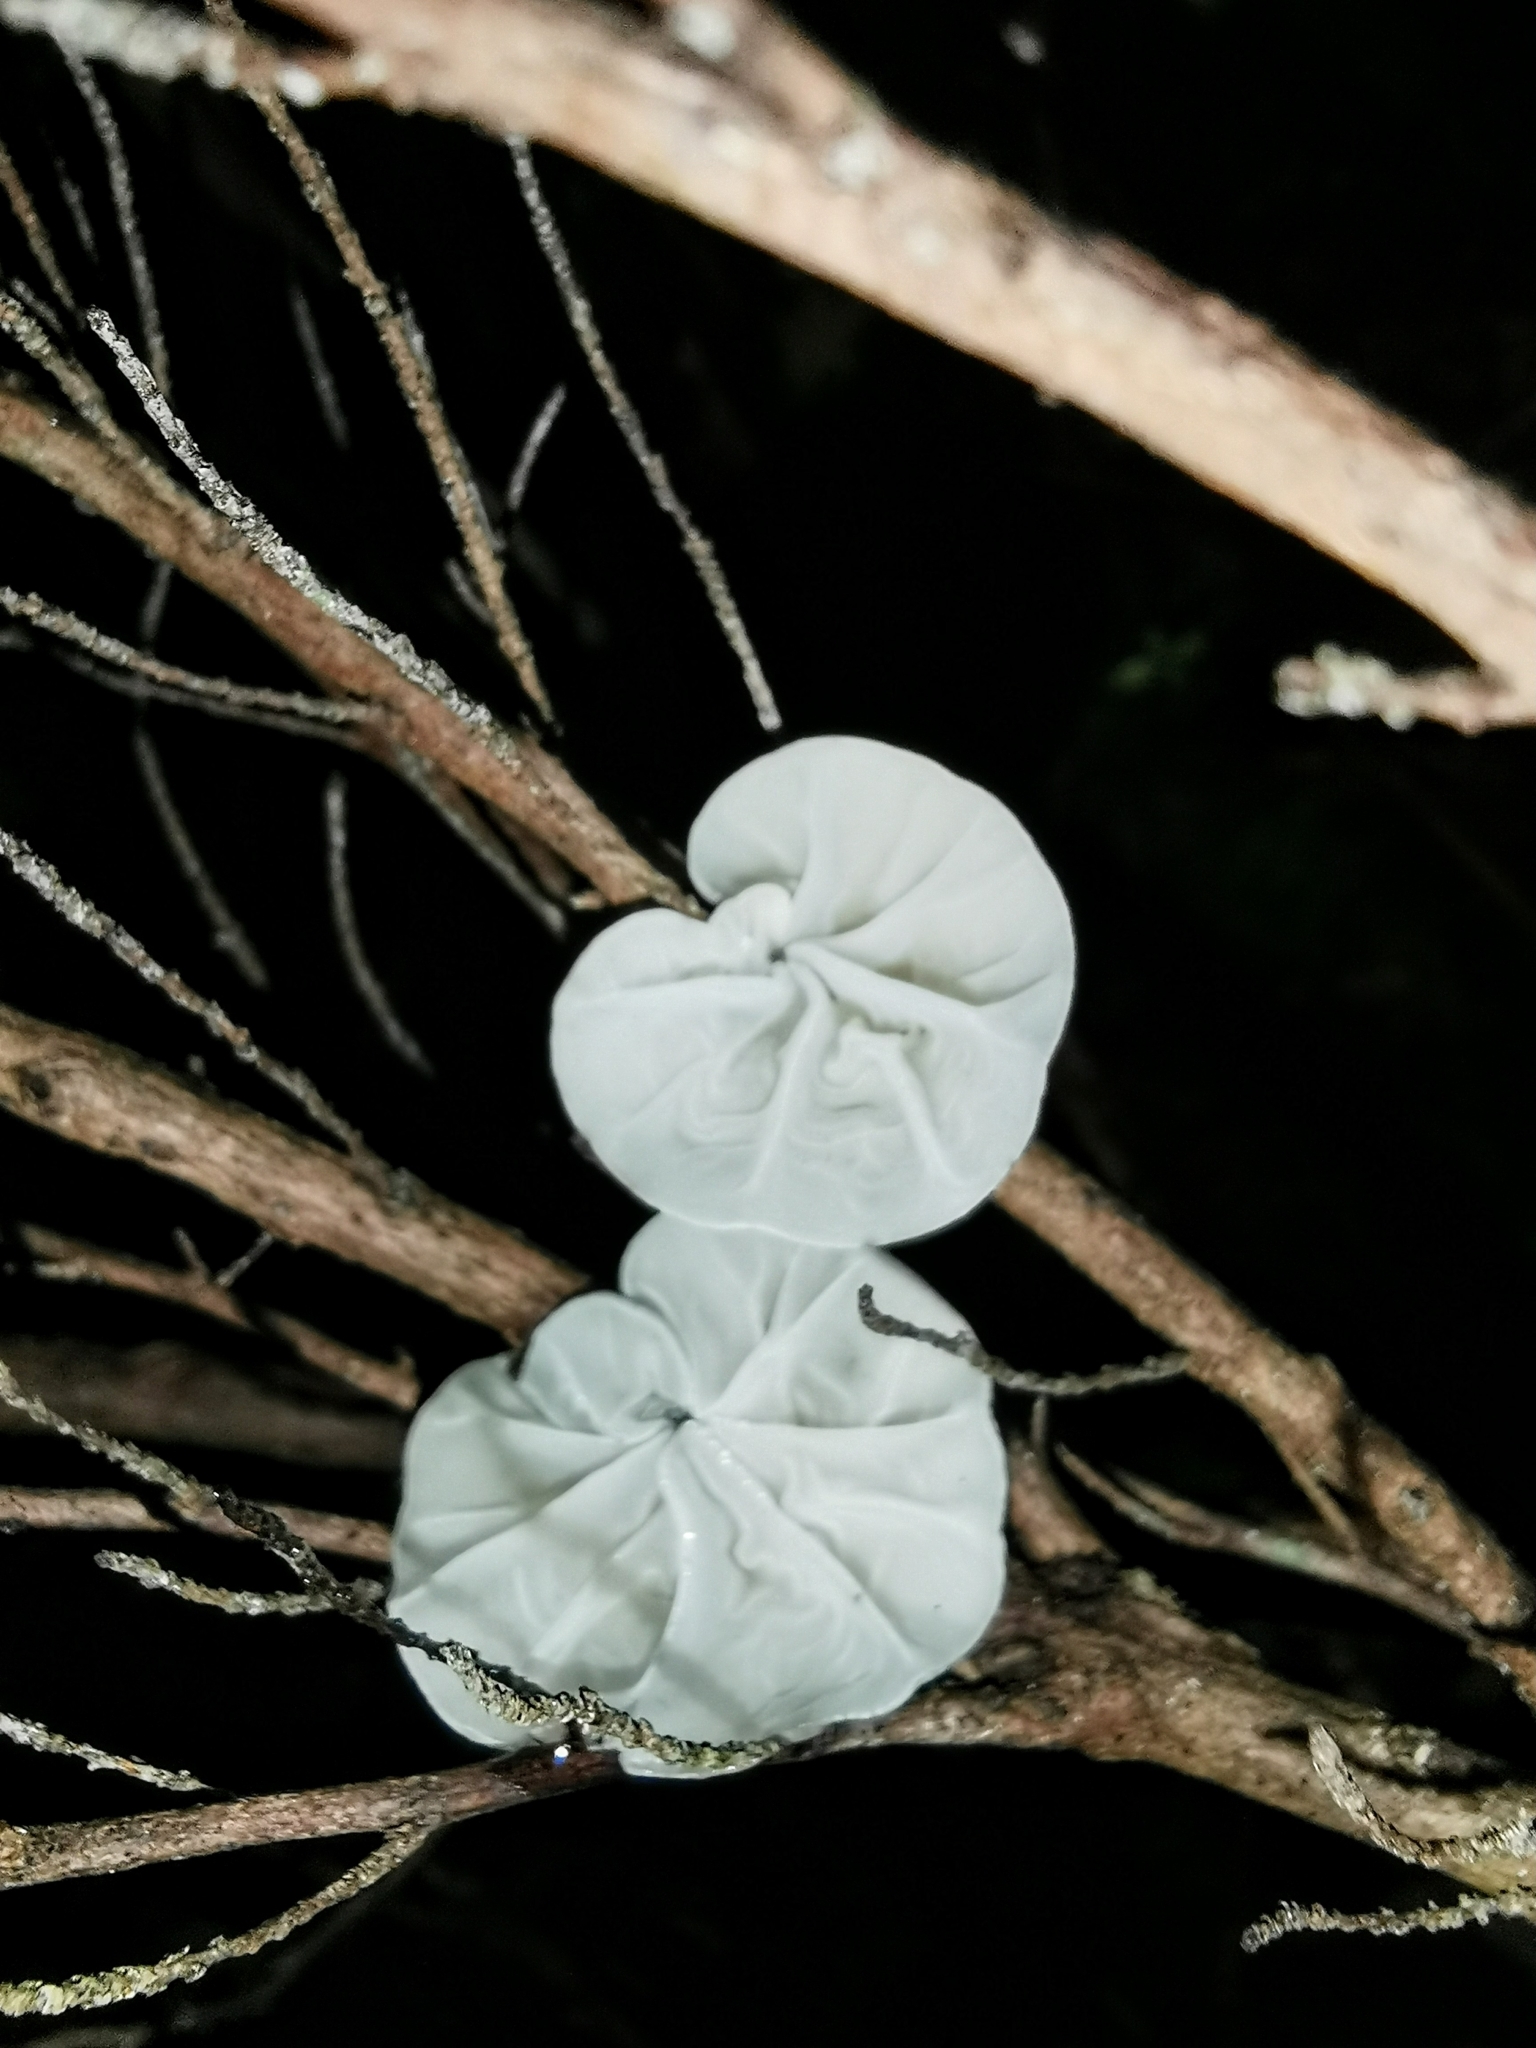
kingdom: Fungi
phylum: Basidiomycota
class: Agaricomycetes
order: Agaricales
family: Marasmiaceae
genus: Campanella
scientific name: Campanella tristis
